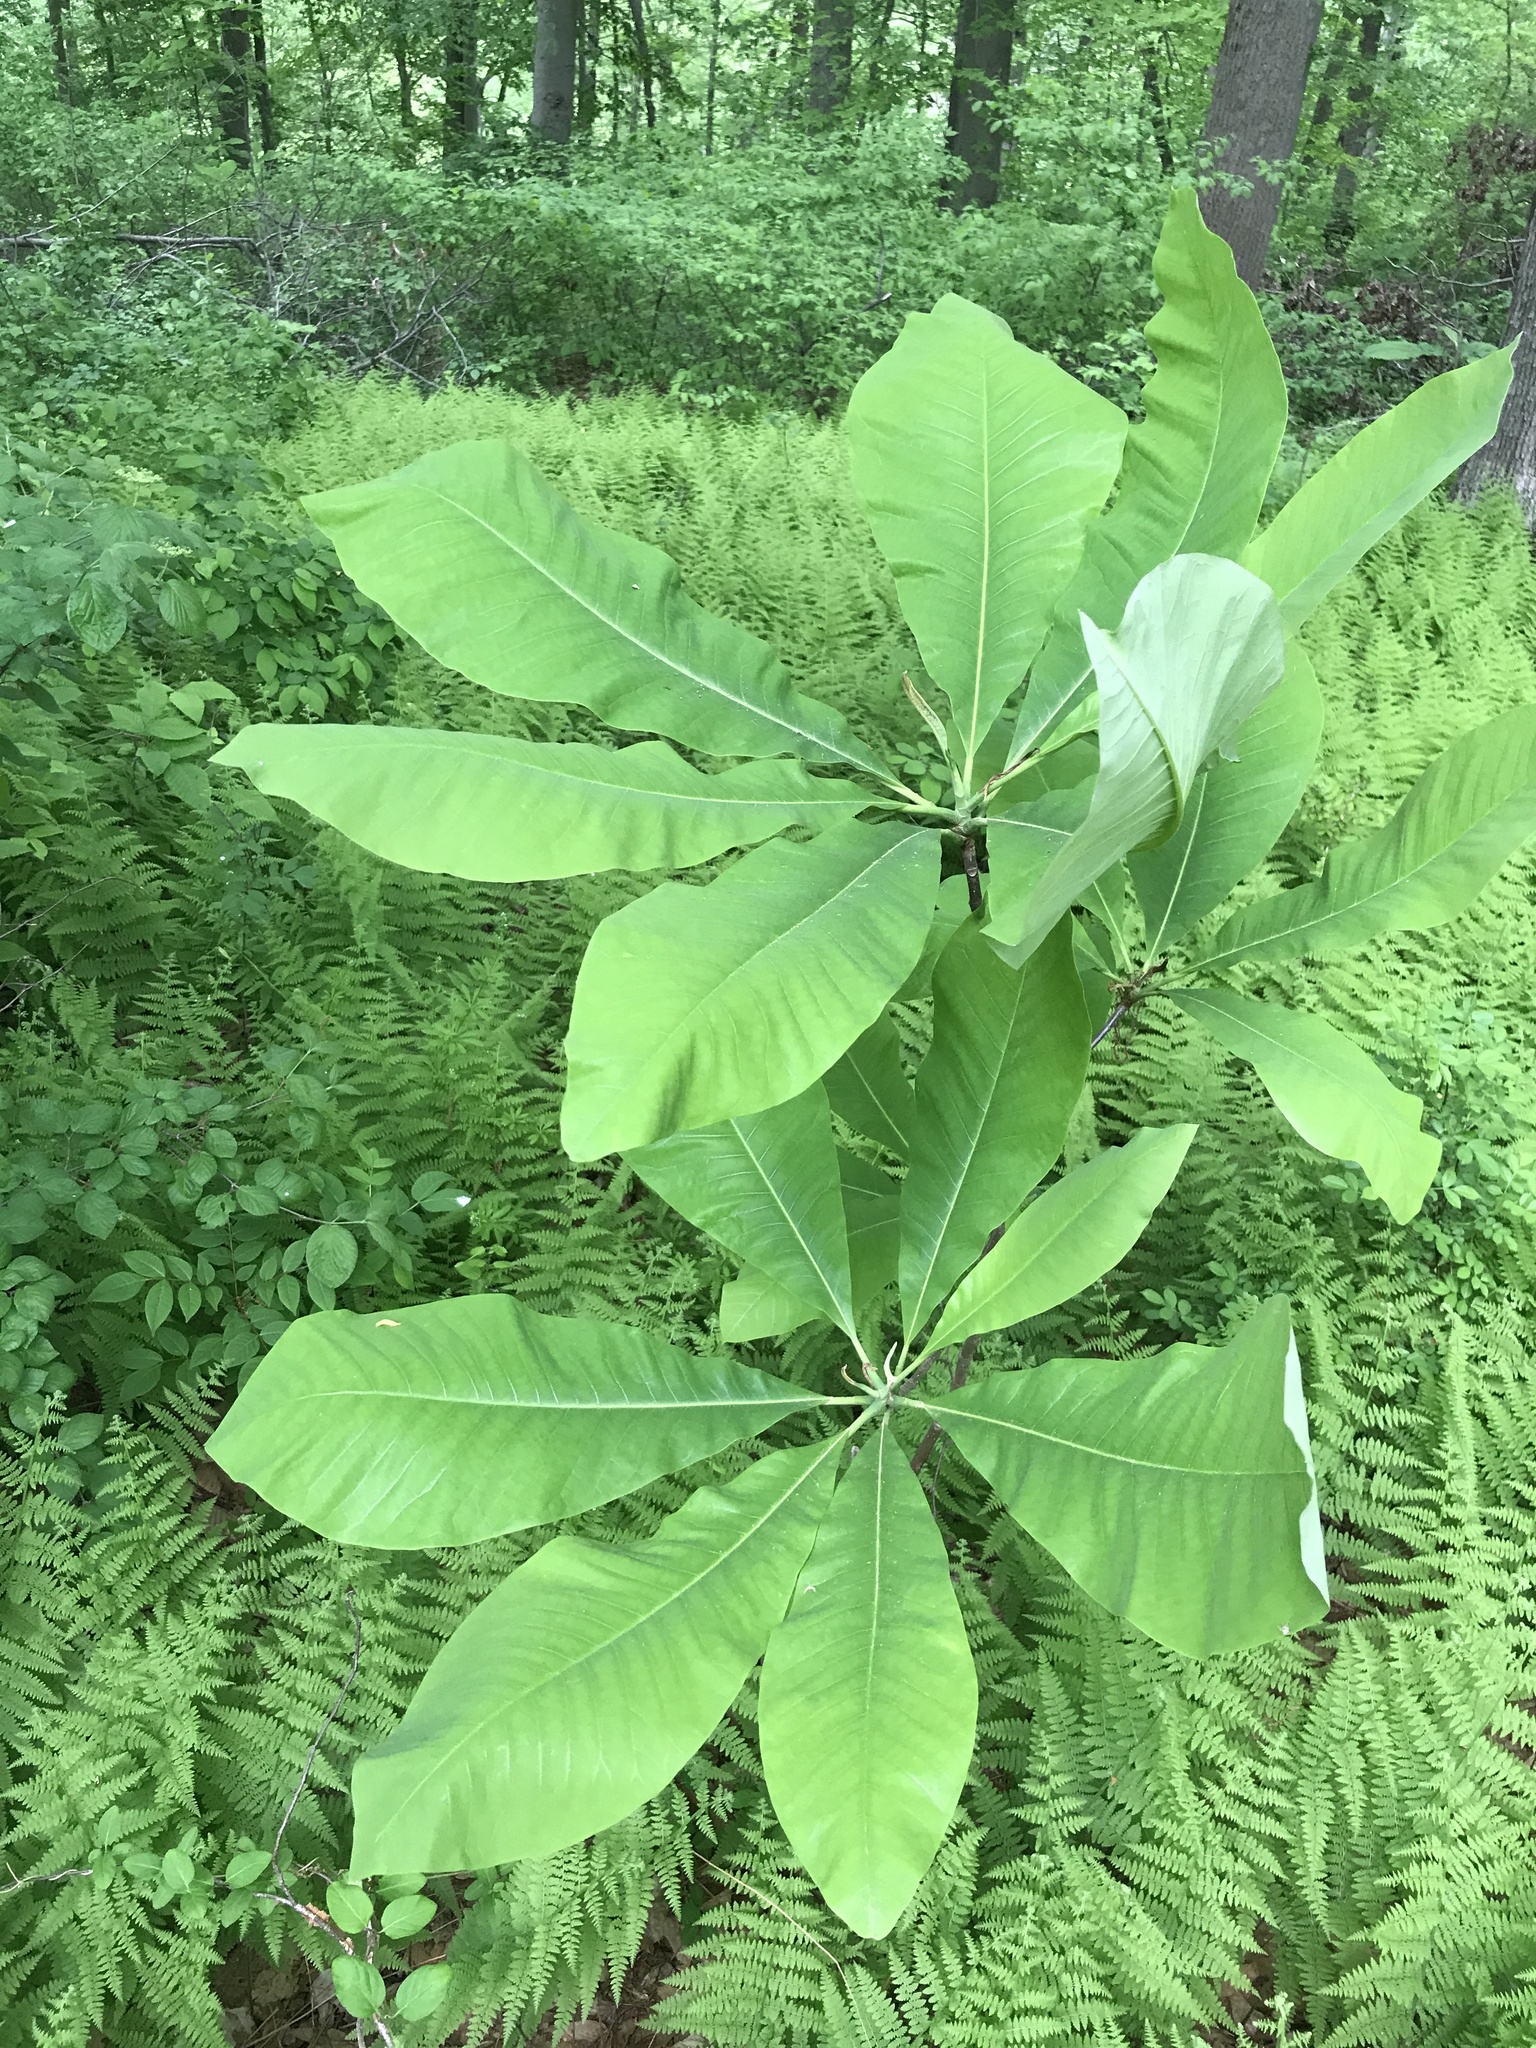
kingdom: Plantae
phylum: Tracheophyta
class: Magnoliopsida
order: Magnoliales
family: Magnoliaceae
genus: Magnolia
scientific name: Magnolia tripetala
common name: Umbrella magnolia
